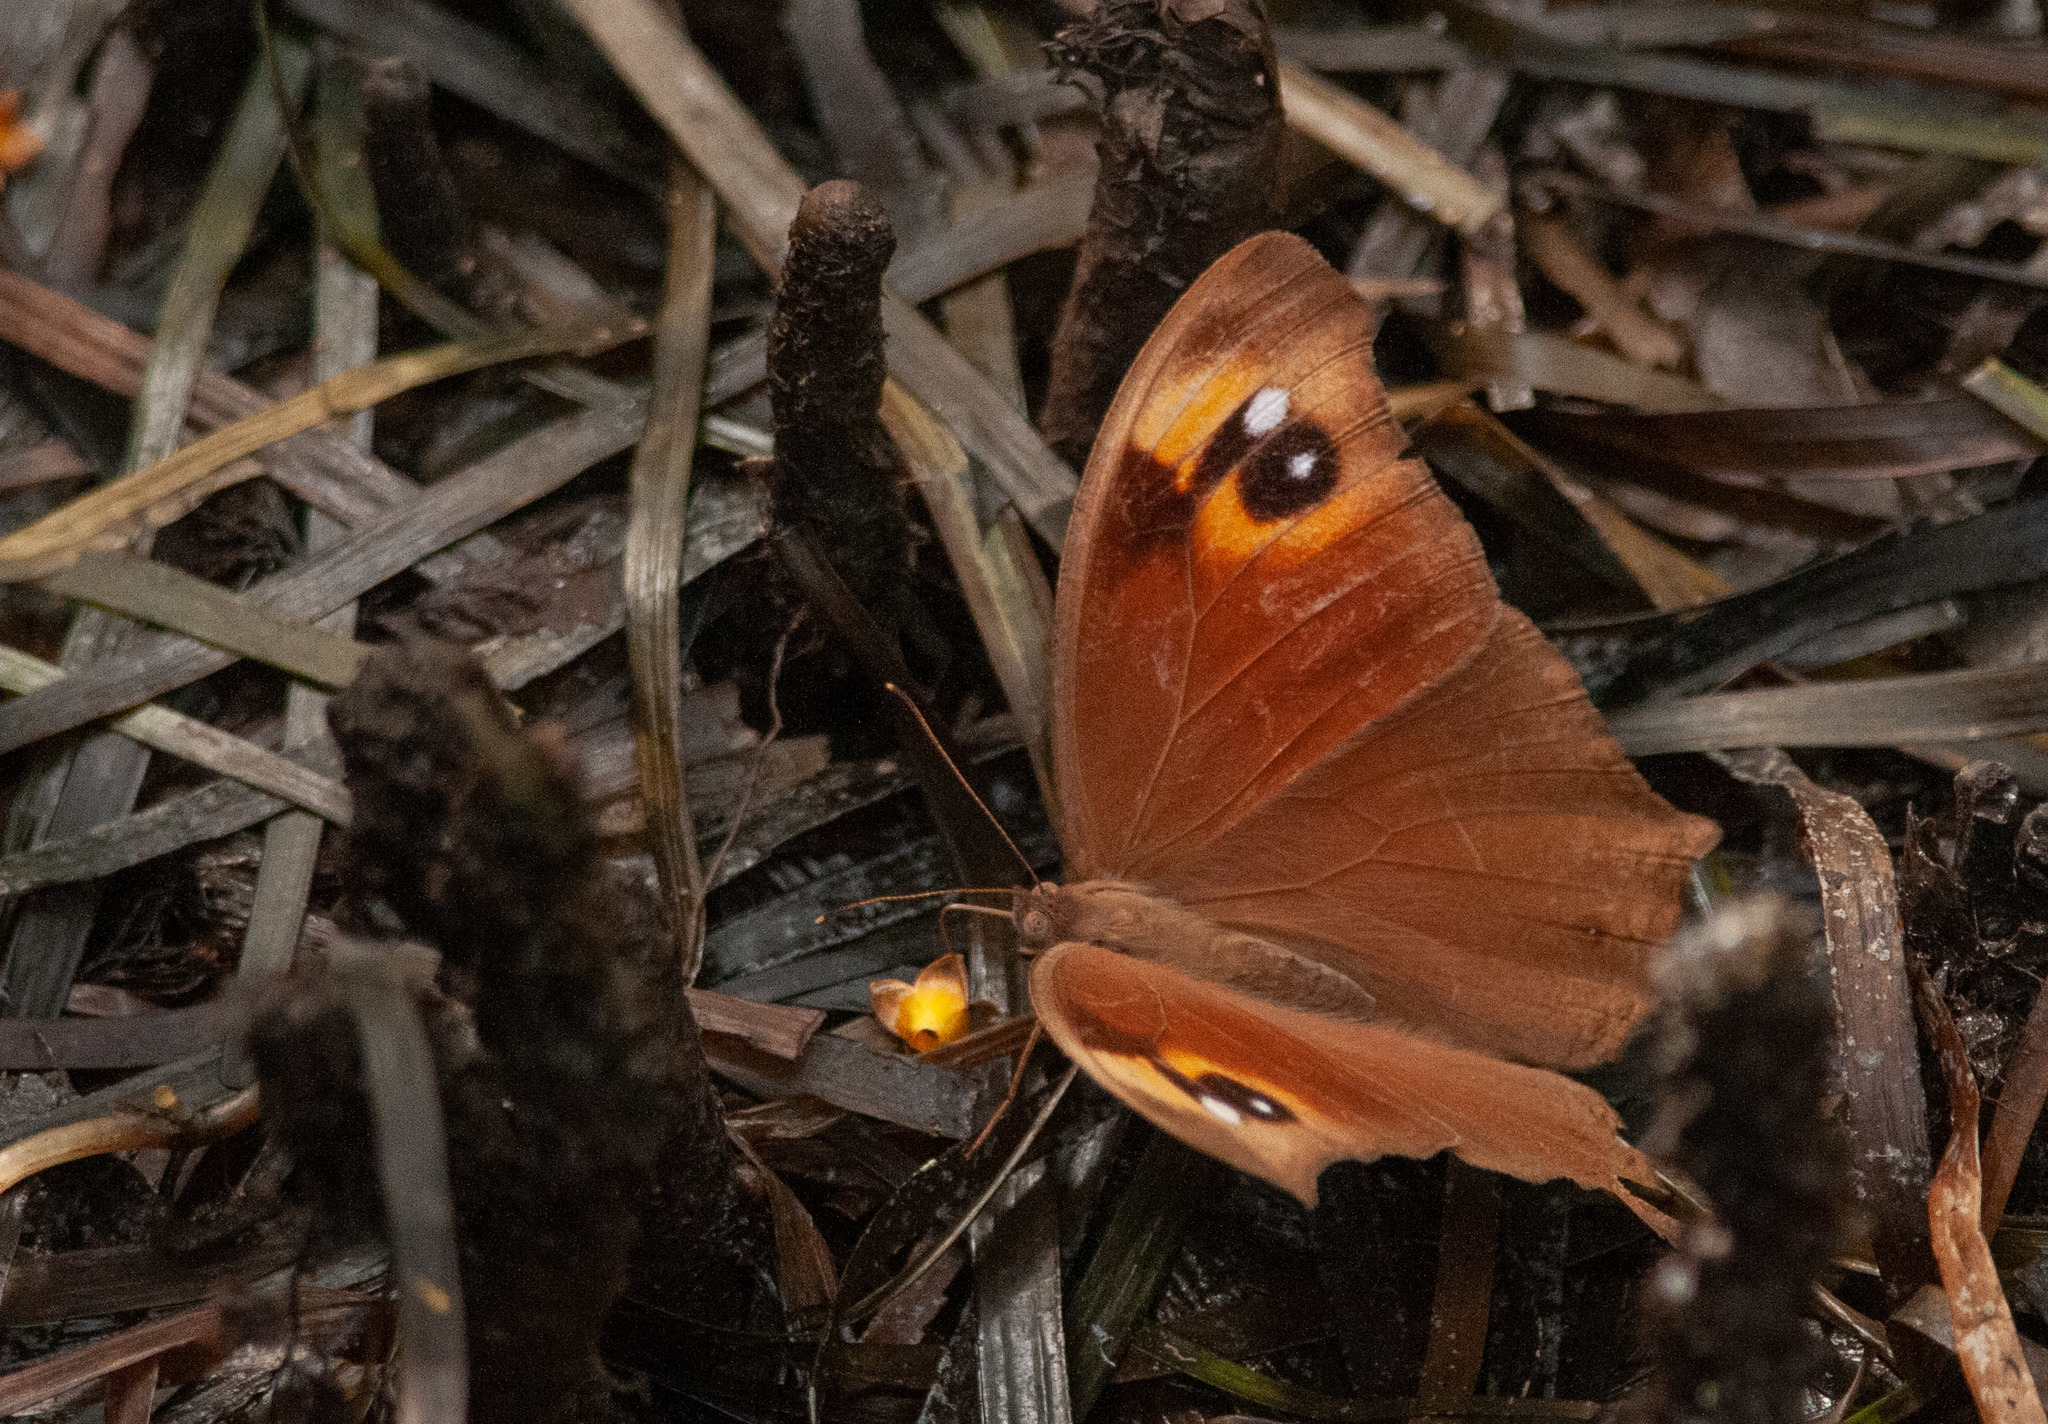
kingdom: Animalia
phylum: Arthropoda
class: Insecta
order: Lepidoptera
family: Nymphalidae
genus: Melanitis
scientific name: Melanitis leda
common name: Twilight brown
